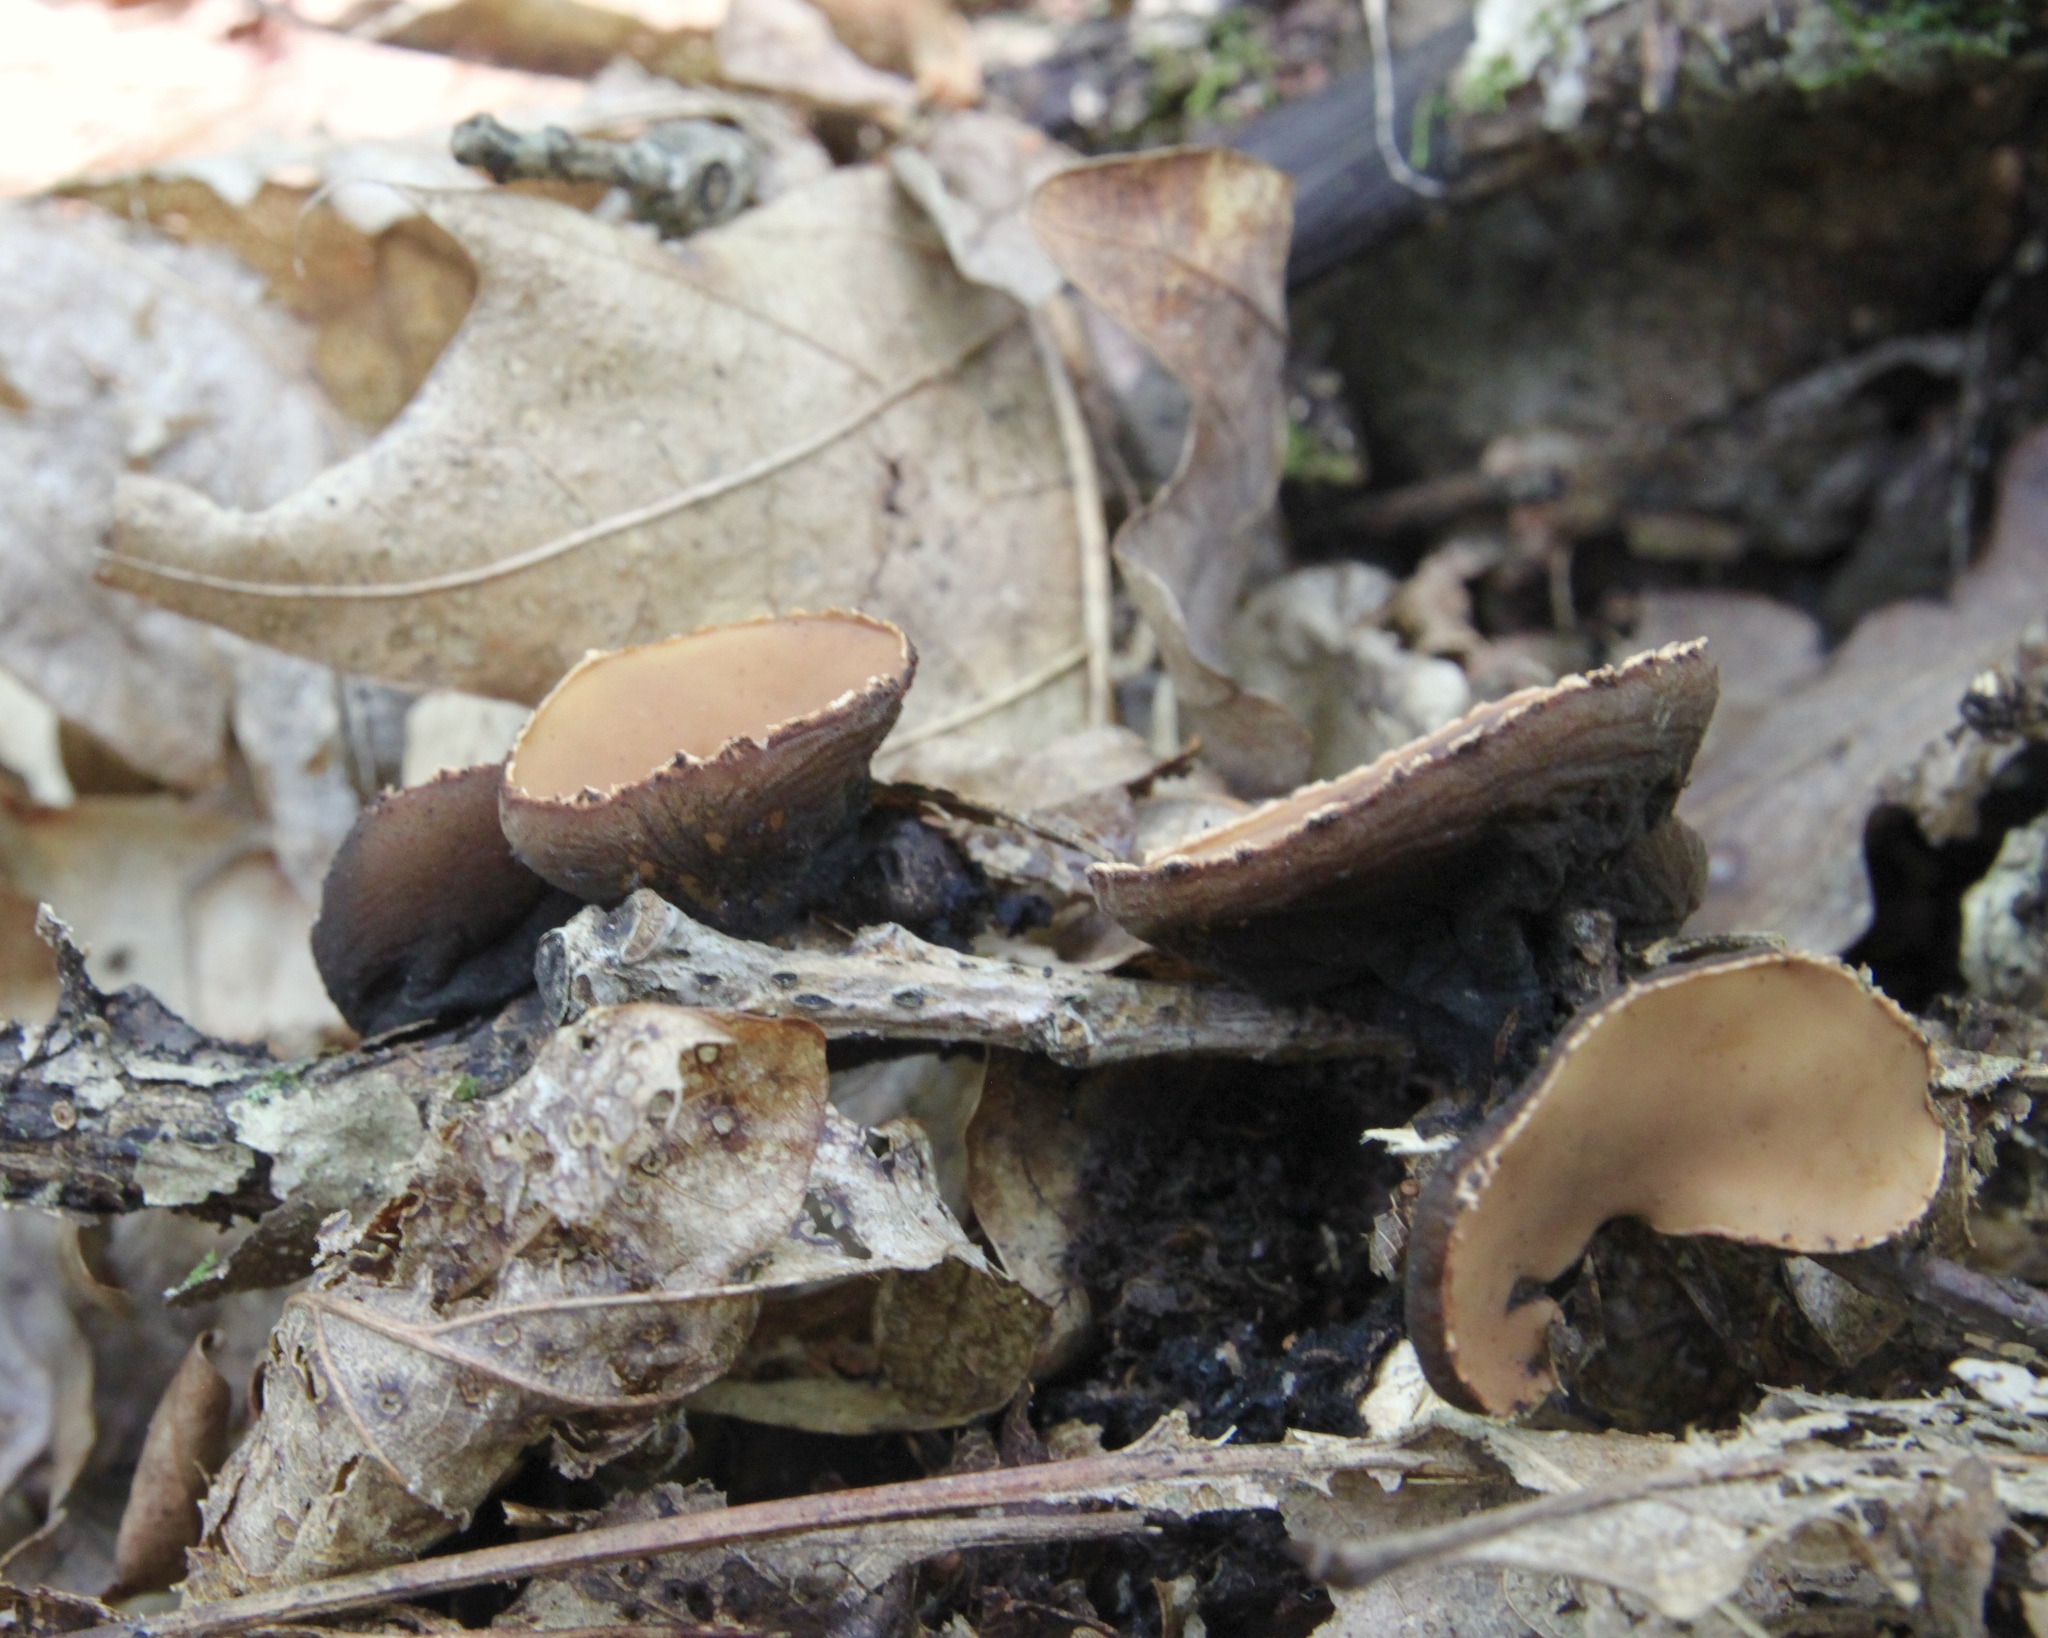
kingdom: Fungi
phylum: Ascomycota
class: Pezizomycetes
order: Pezizales
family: Sarcosomataceae
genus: Galiella
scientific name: Galiella rufa
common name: Hairy rubber cup
